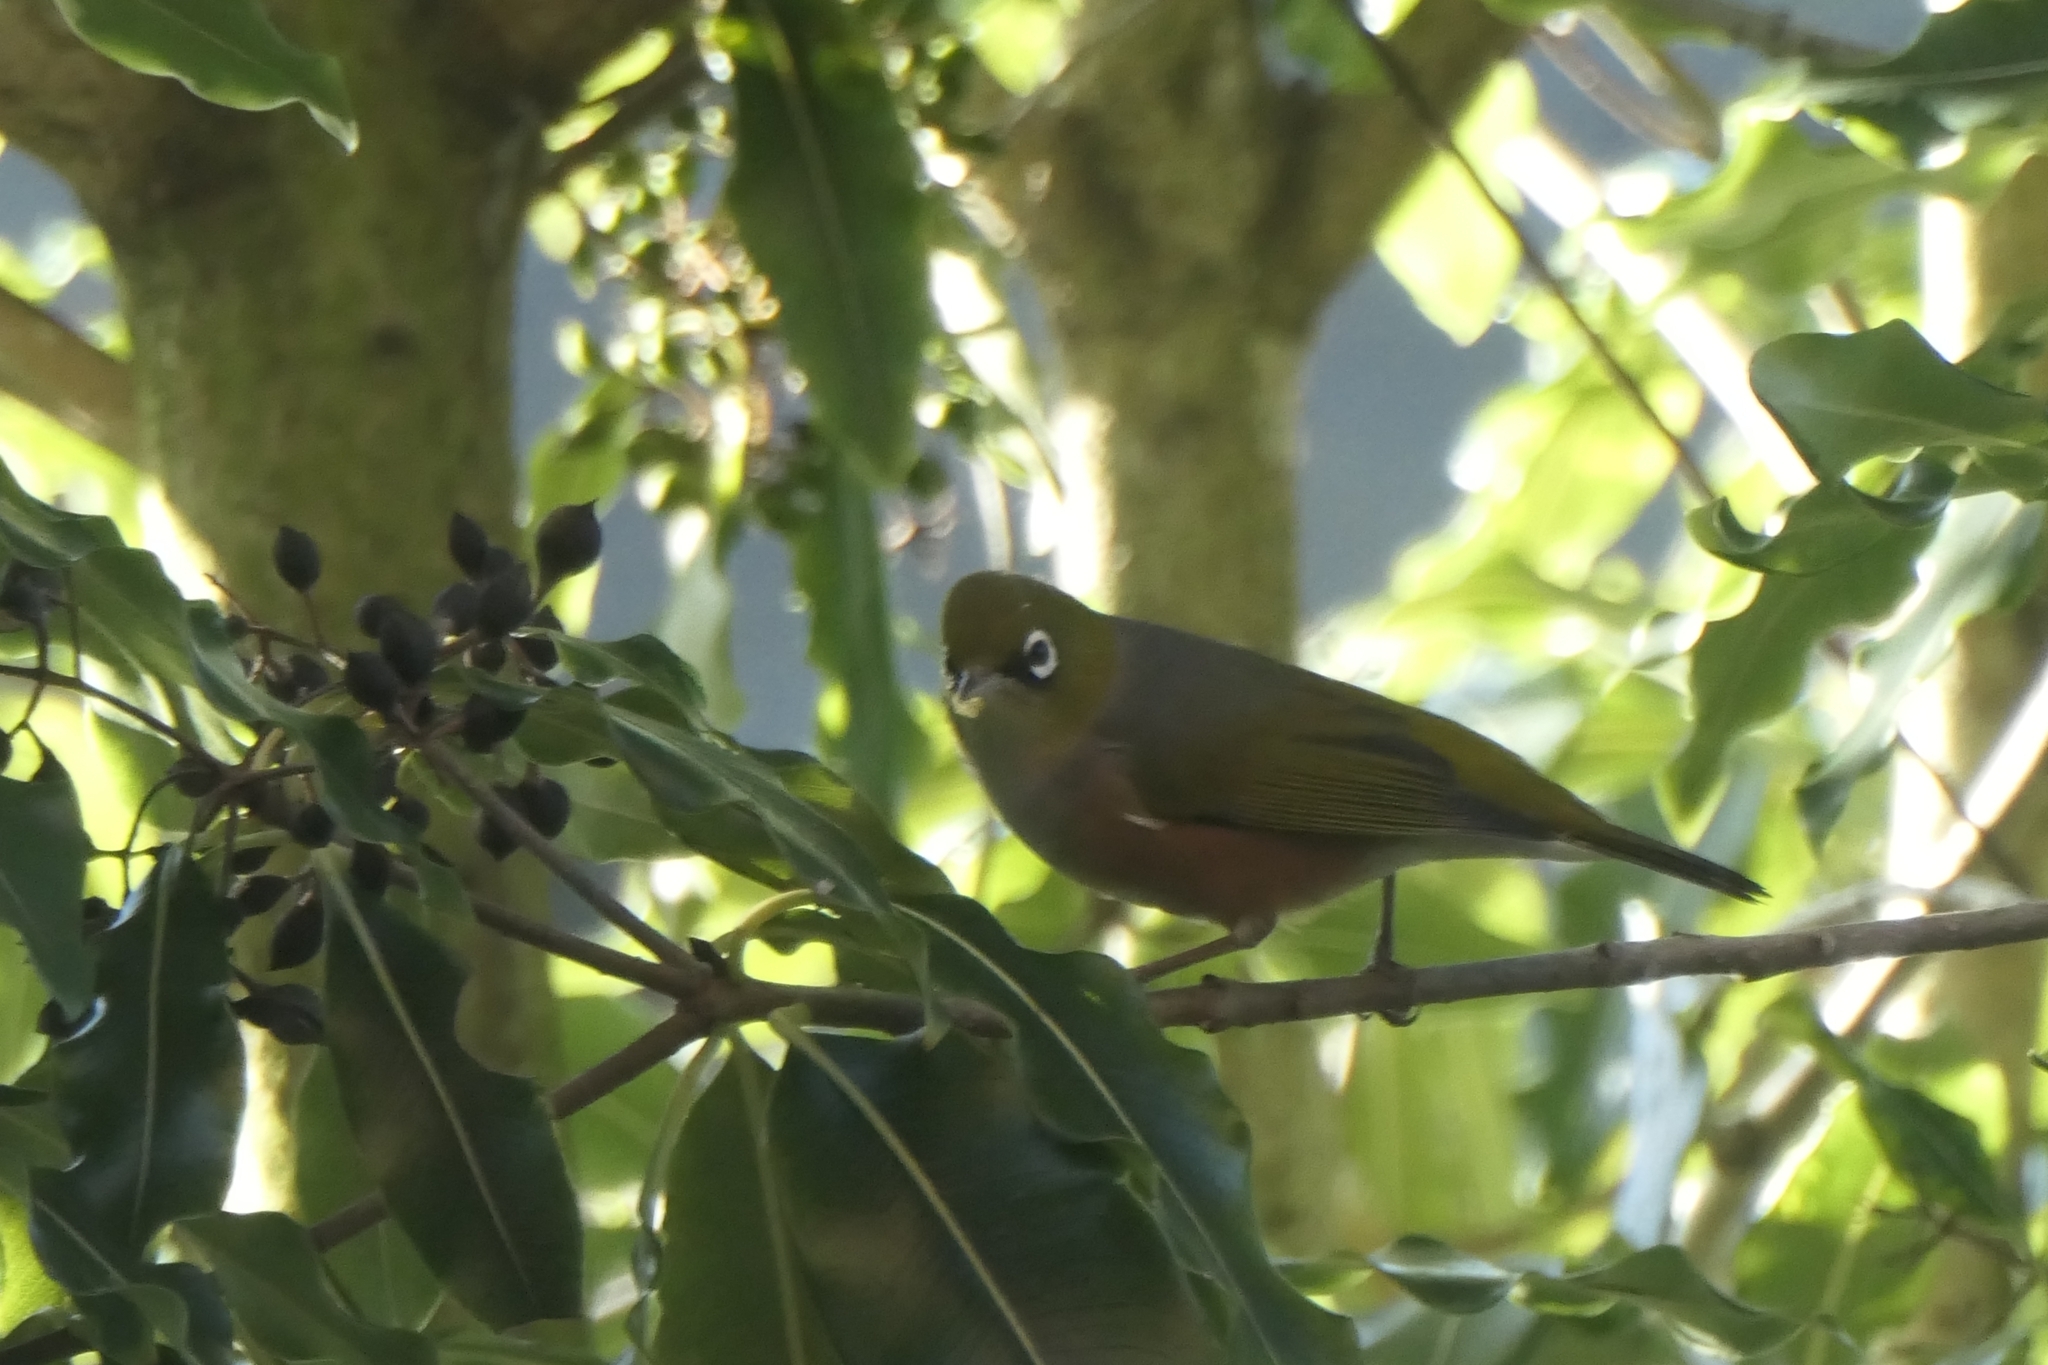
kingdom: Animalia
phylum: Chordata
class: Aves
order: Passeriformes
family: Zosteropidae
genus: Zosterops
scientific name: Zosterops lateralis
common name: Silvereye
